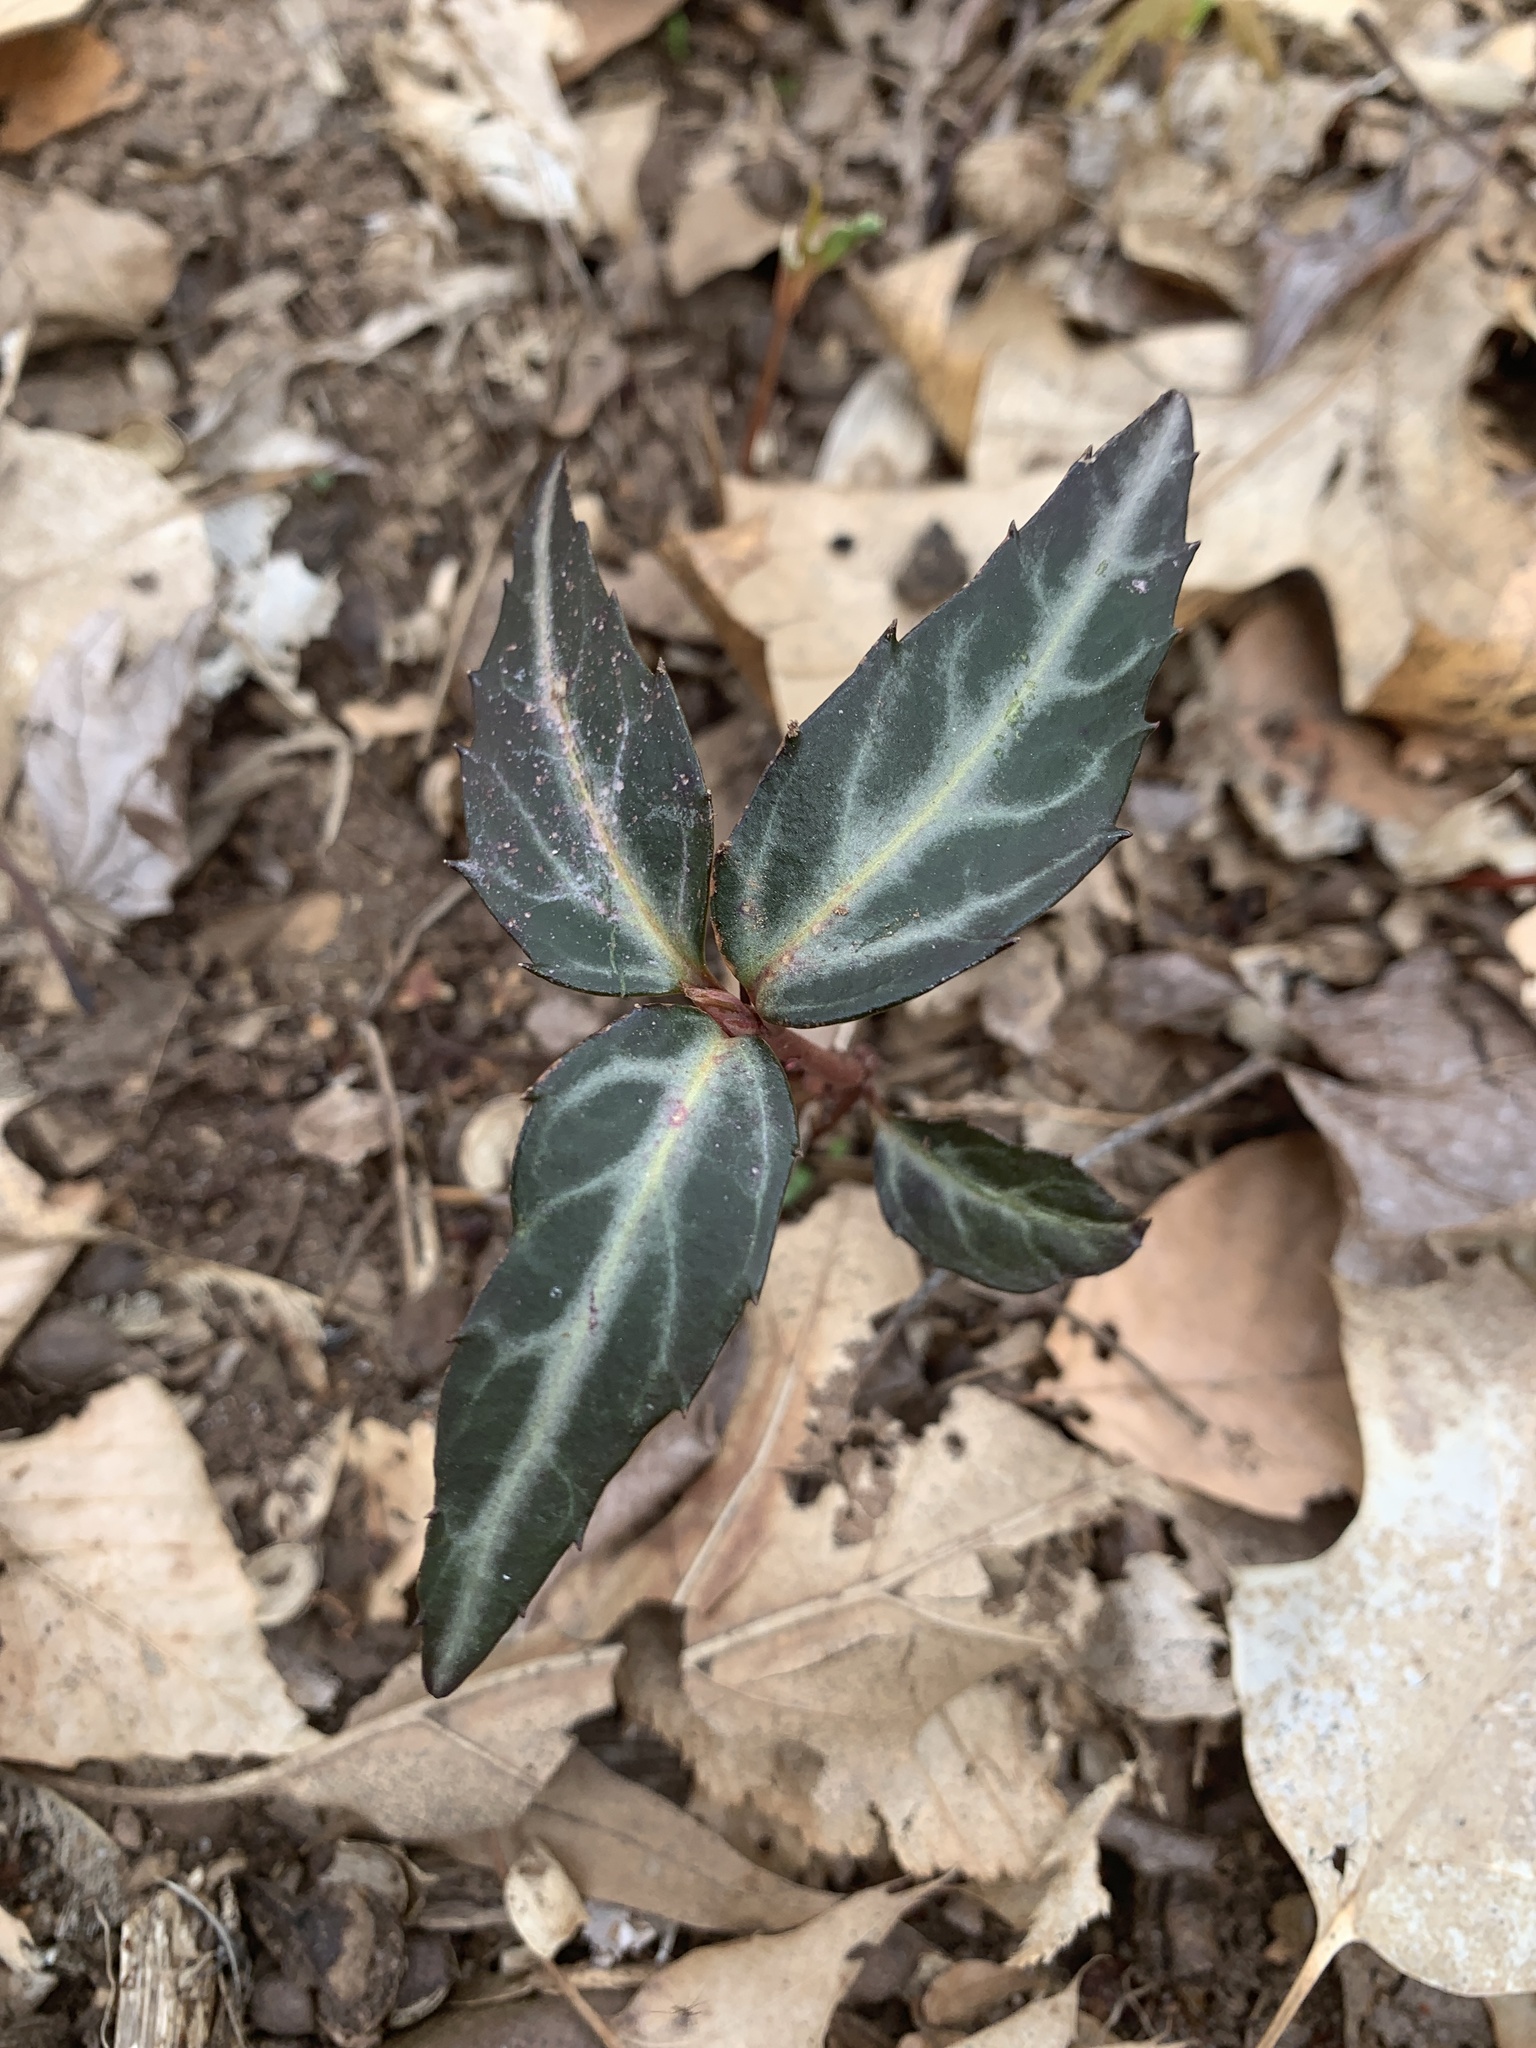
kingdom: Plantae
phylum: Tracheophyta
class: Magnoliopsida
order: Ericales
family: Ericaceae
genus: Chimaphila
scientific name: Chimaphila maculata
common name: Spotted pipsissewa
